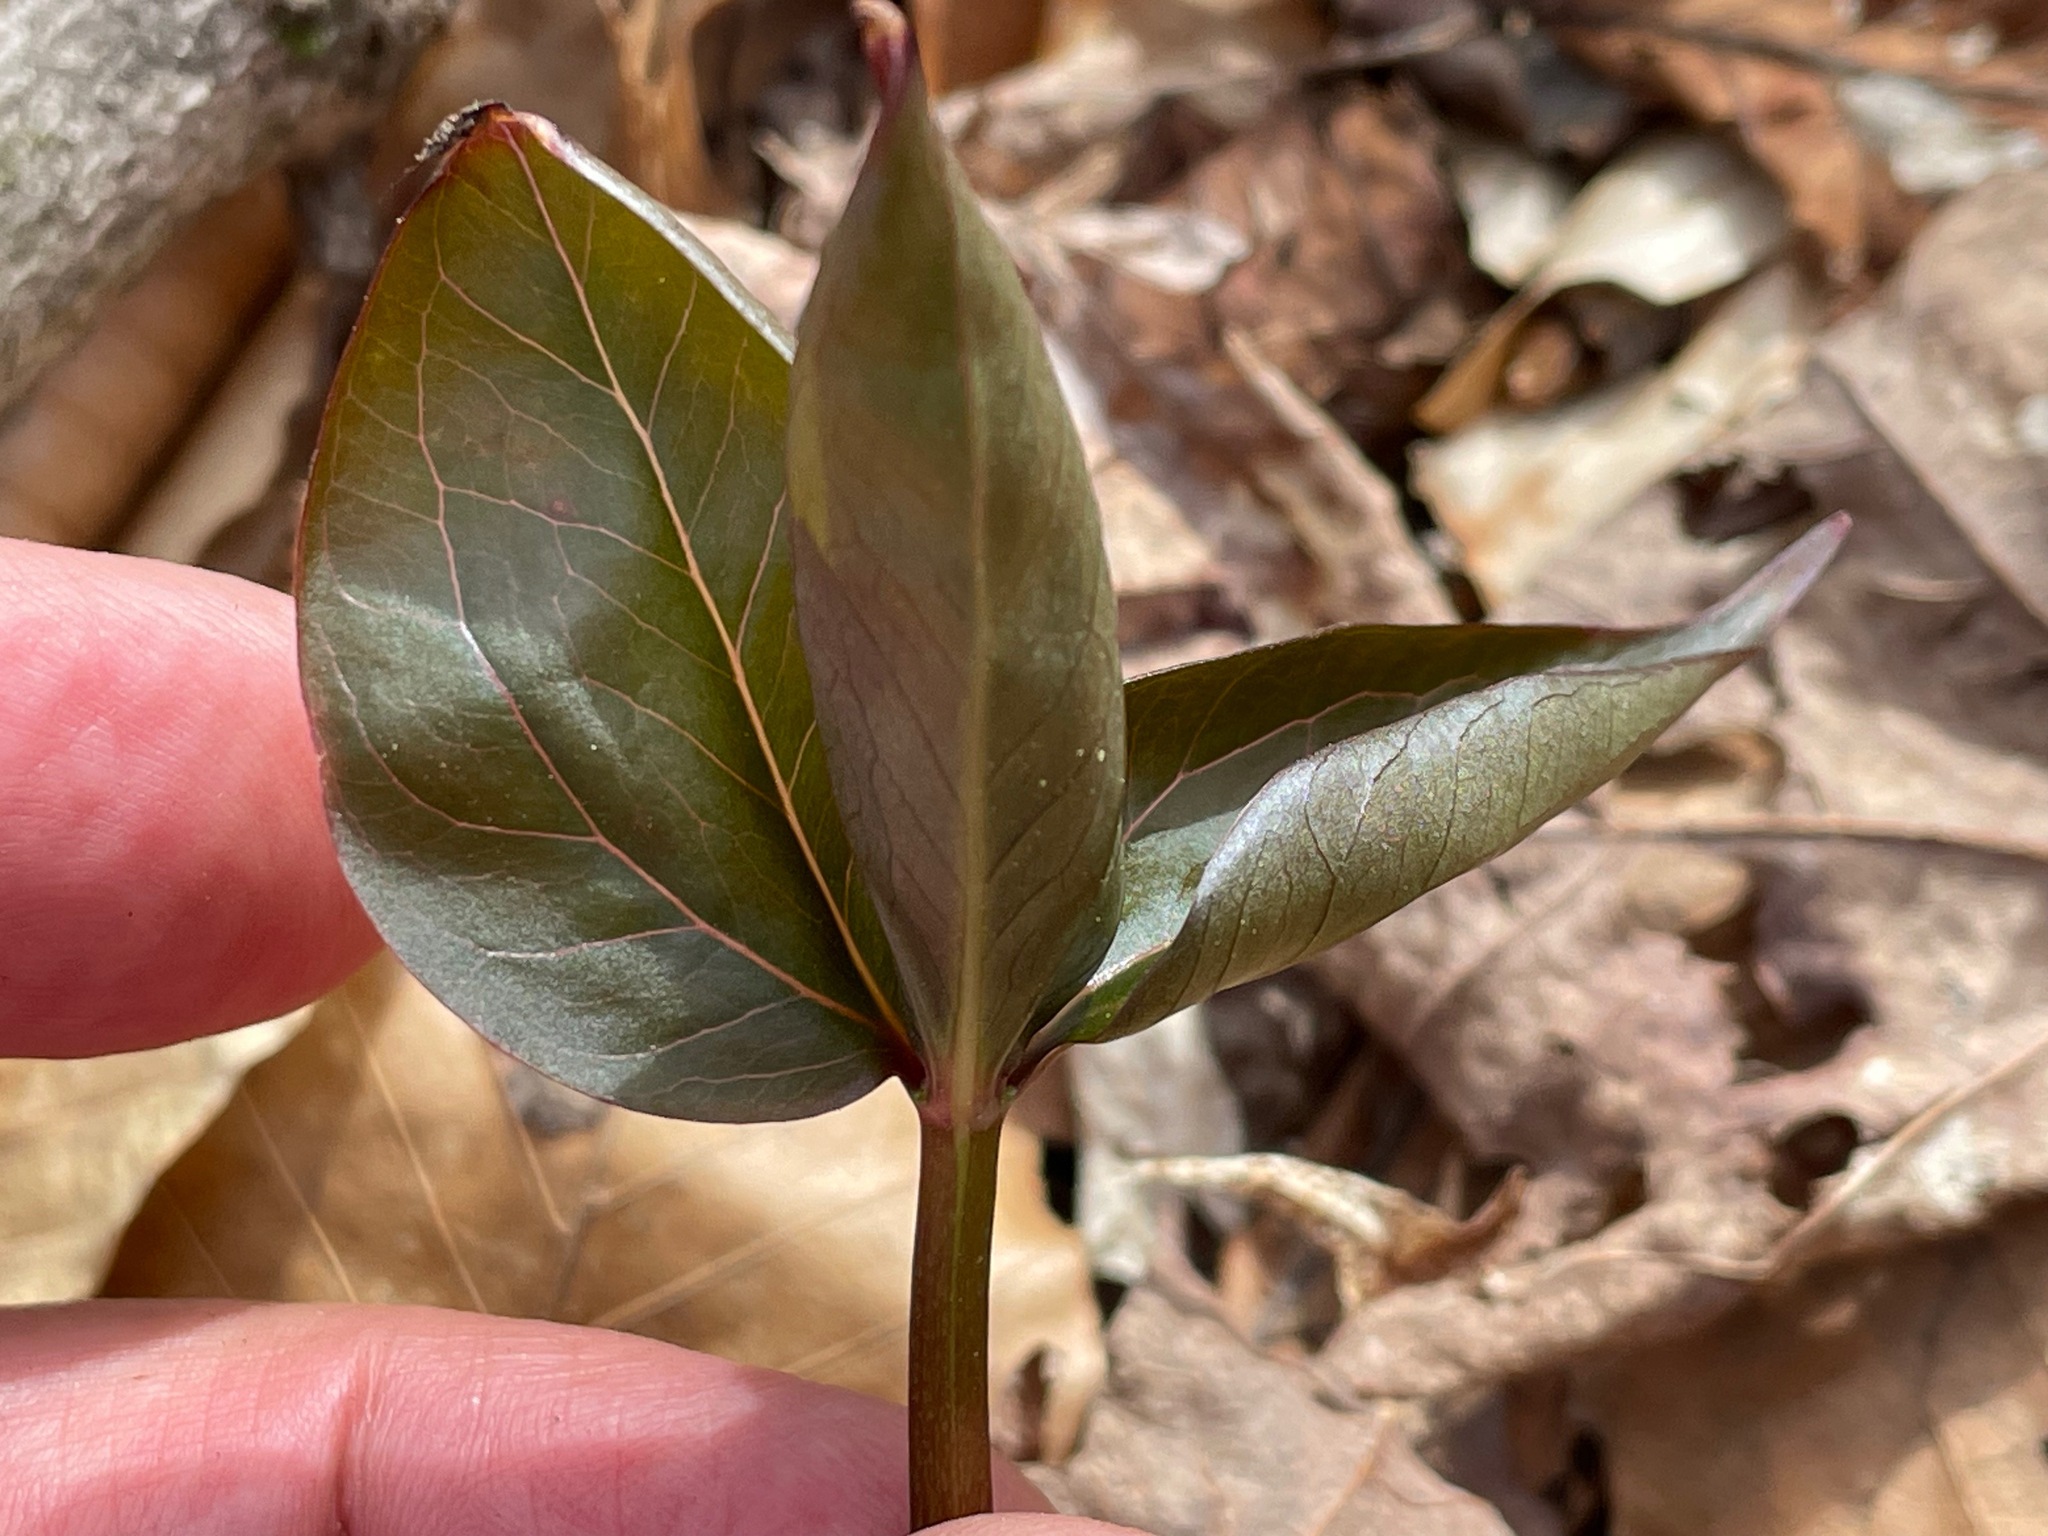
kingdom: Plantae
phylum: Tracheophyta
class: Liliopsida
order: Liliales
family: Melanthiaceae
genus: Trillium
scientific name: Trillium undulatum
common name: Paint trillium
